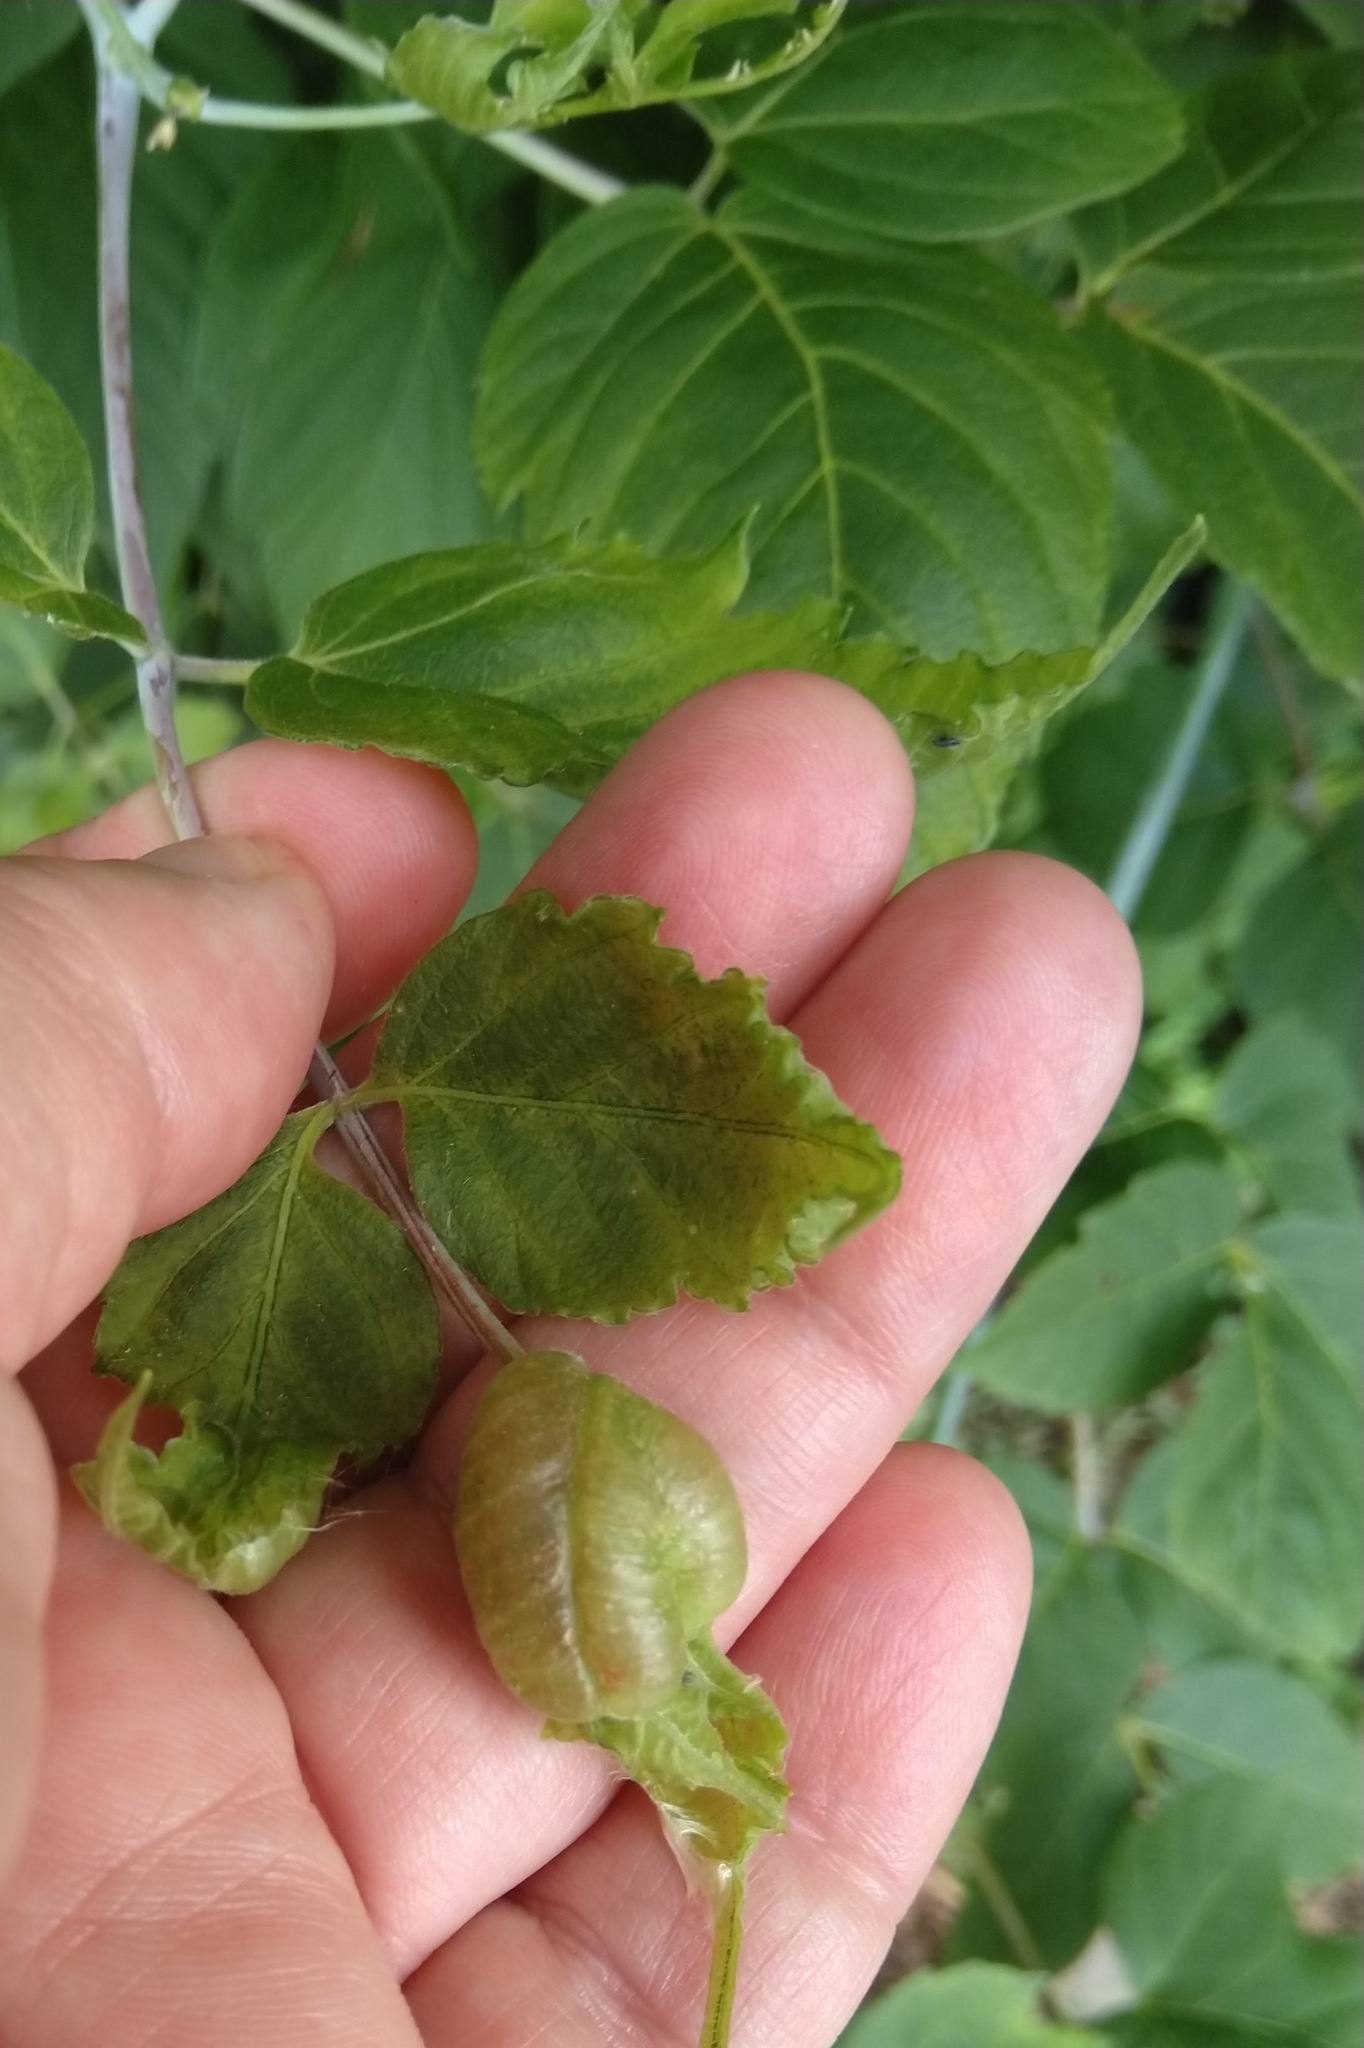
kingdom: Animalia
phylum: Arthropoda
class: Insecta
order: Diptera
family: Cecidomyiidae
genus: Contarinia
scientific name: Contarinia negundinis
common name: Boxelder budgall midge
